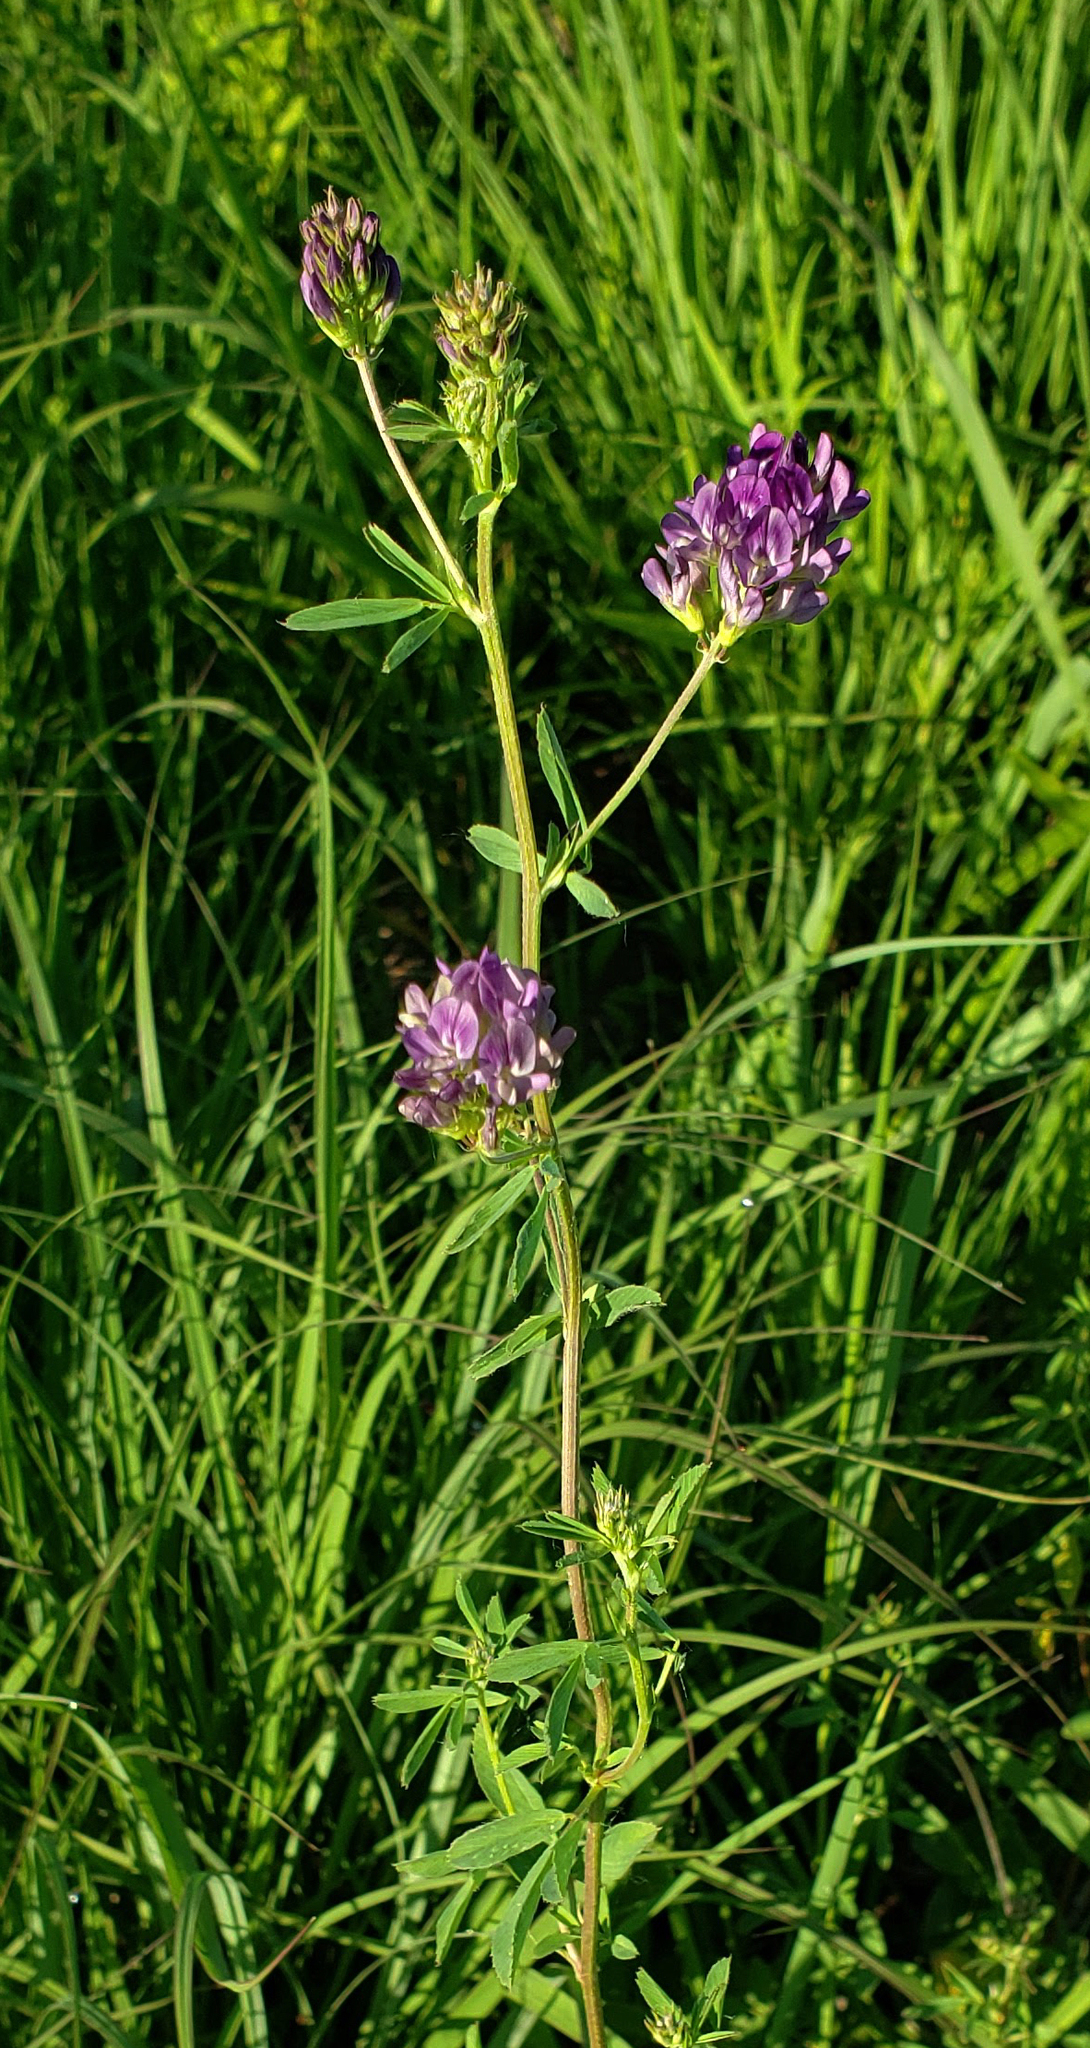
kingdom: Plantae
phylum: Tracheophyta
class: Magnoliopsida
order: Fabales
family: Fabaceae
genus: Medicago
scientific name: Medicago sativa
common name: Alfalfa
